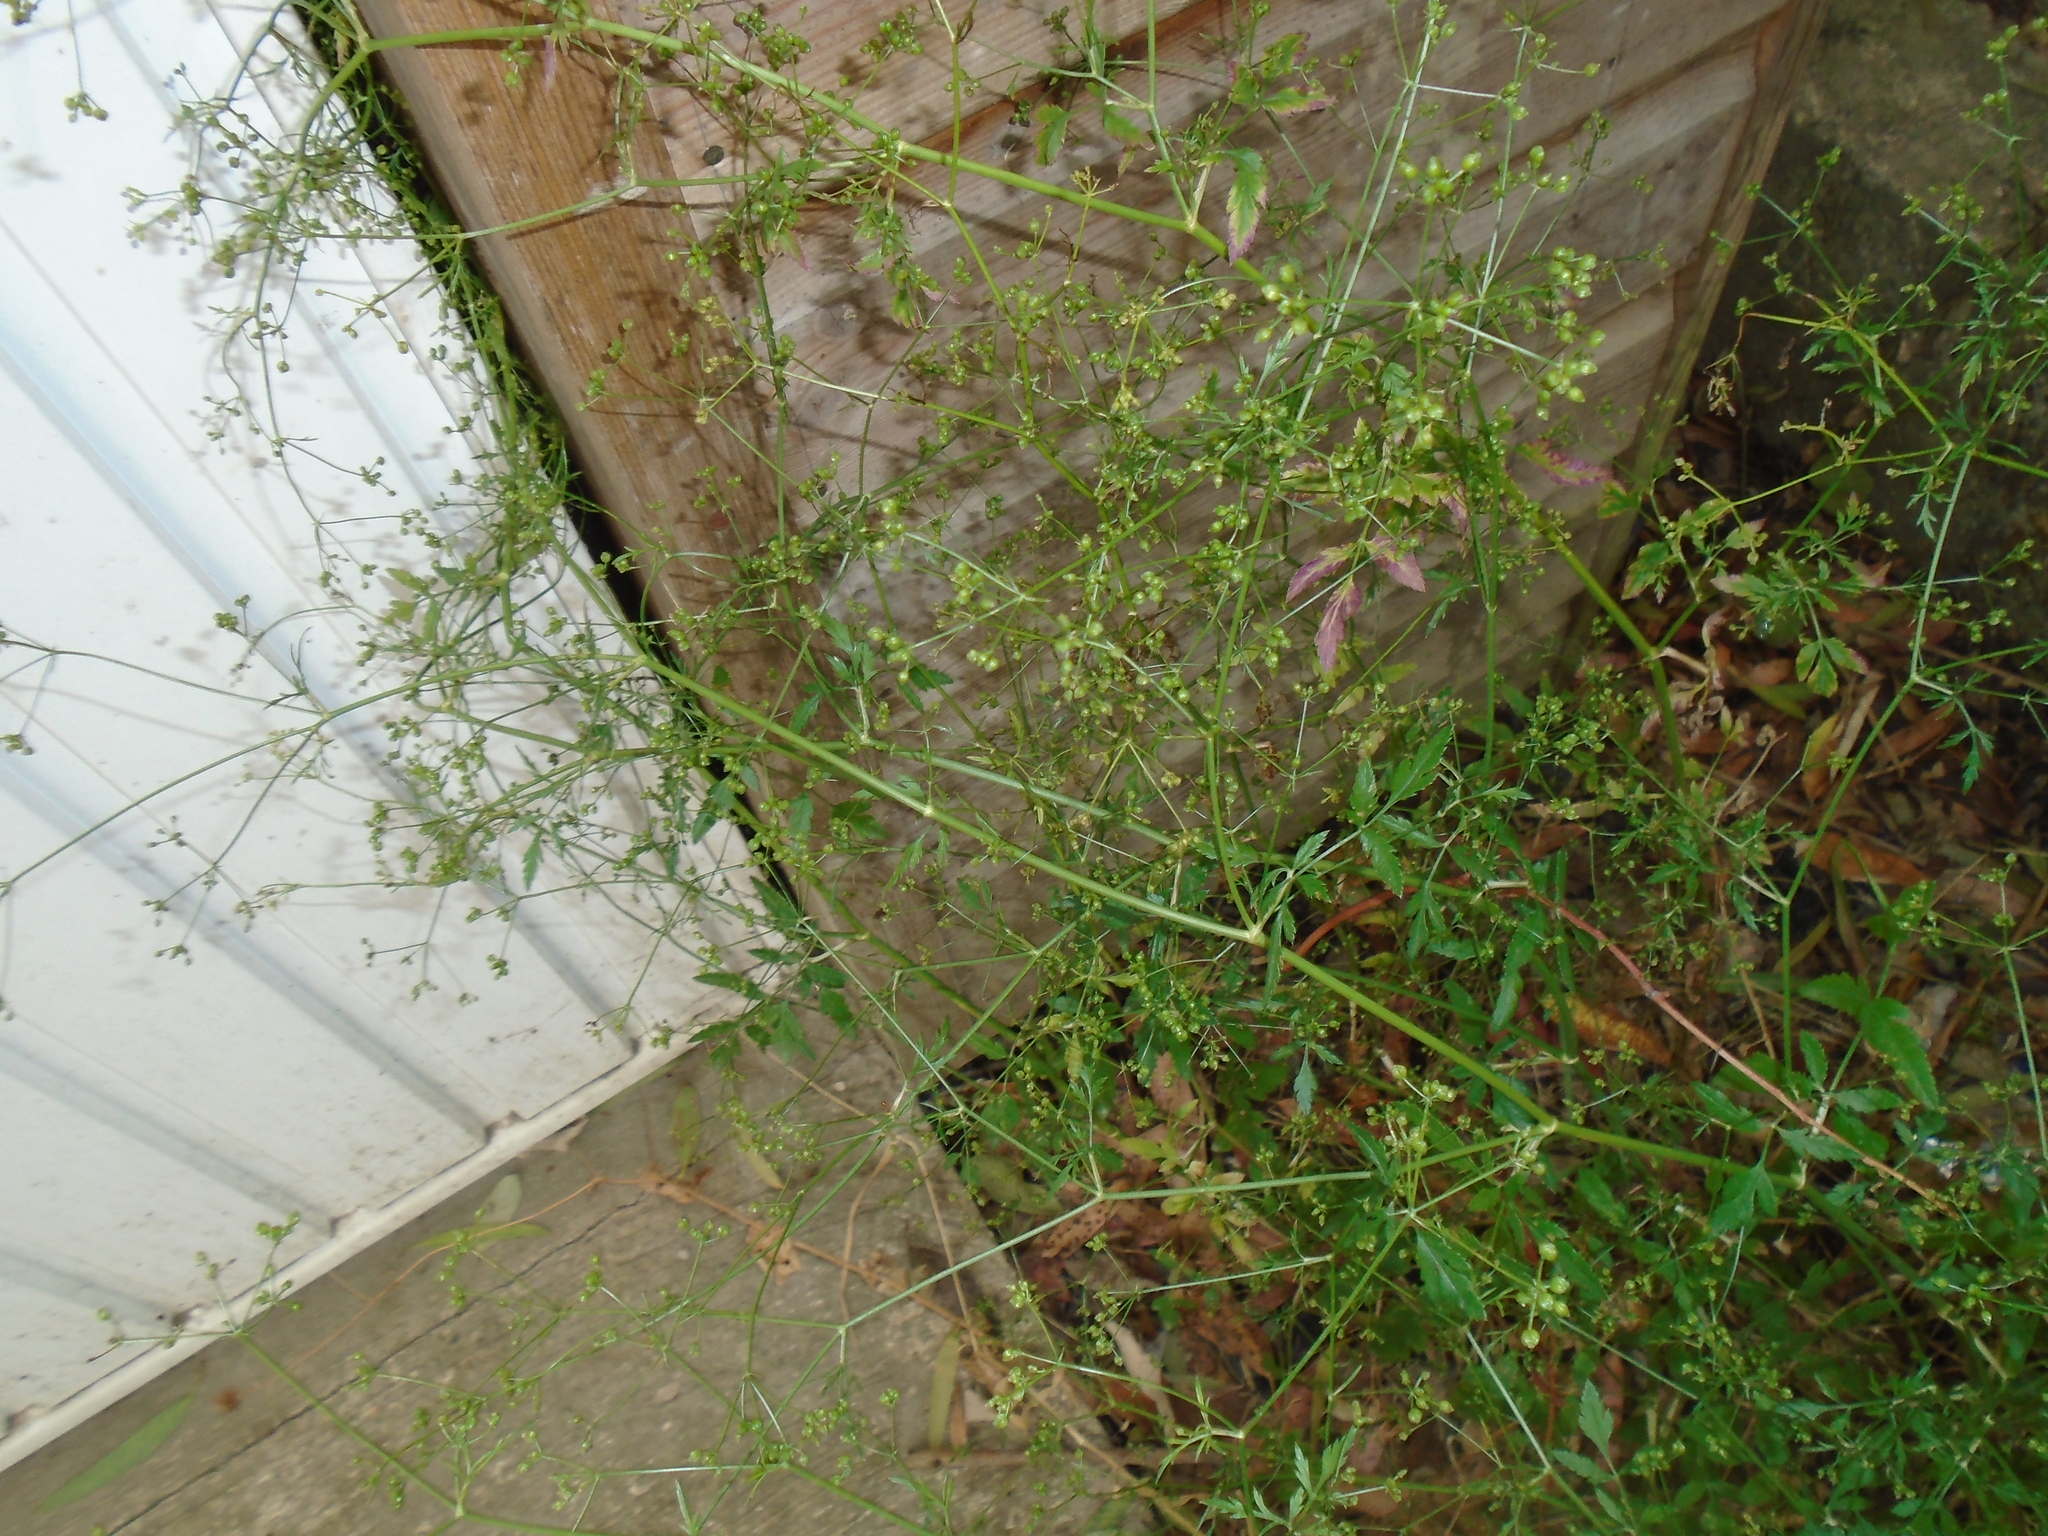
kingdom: Plantae
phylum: Tracheophyta
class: Magnoliopsida
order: Apiales
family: Apiaceae
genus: Sison
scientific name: Sison amomum
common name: Stone-parsley
